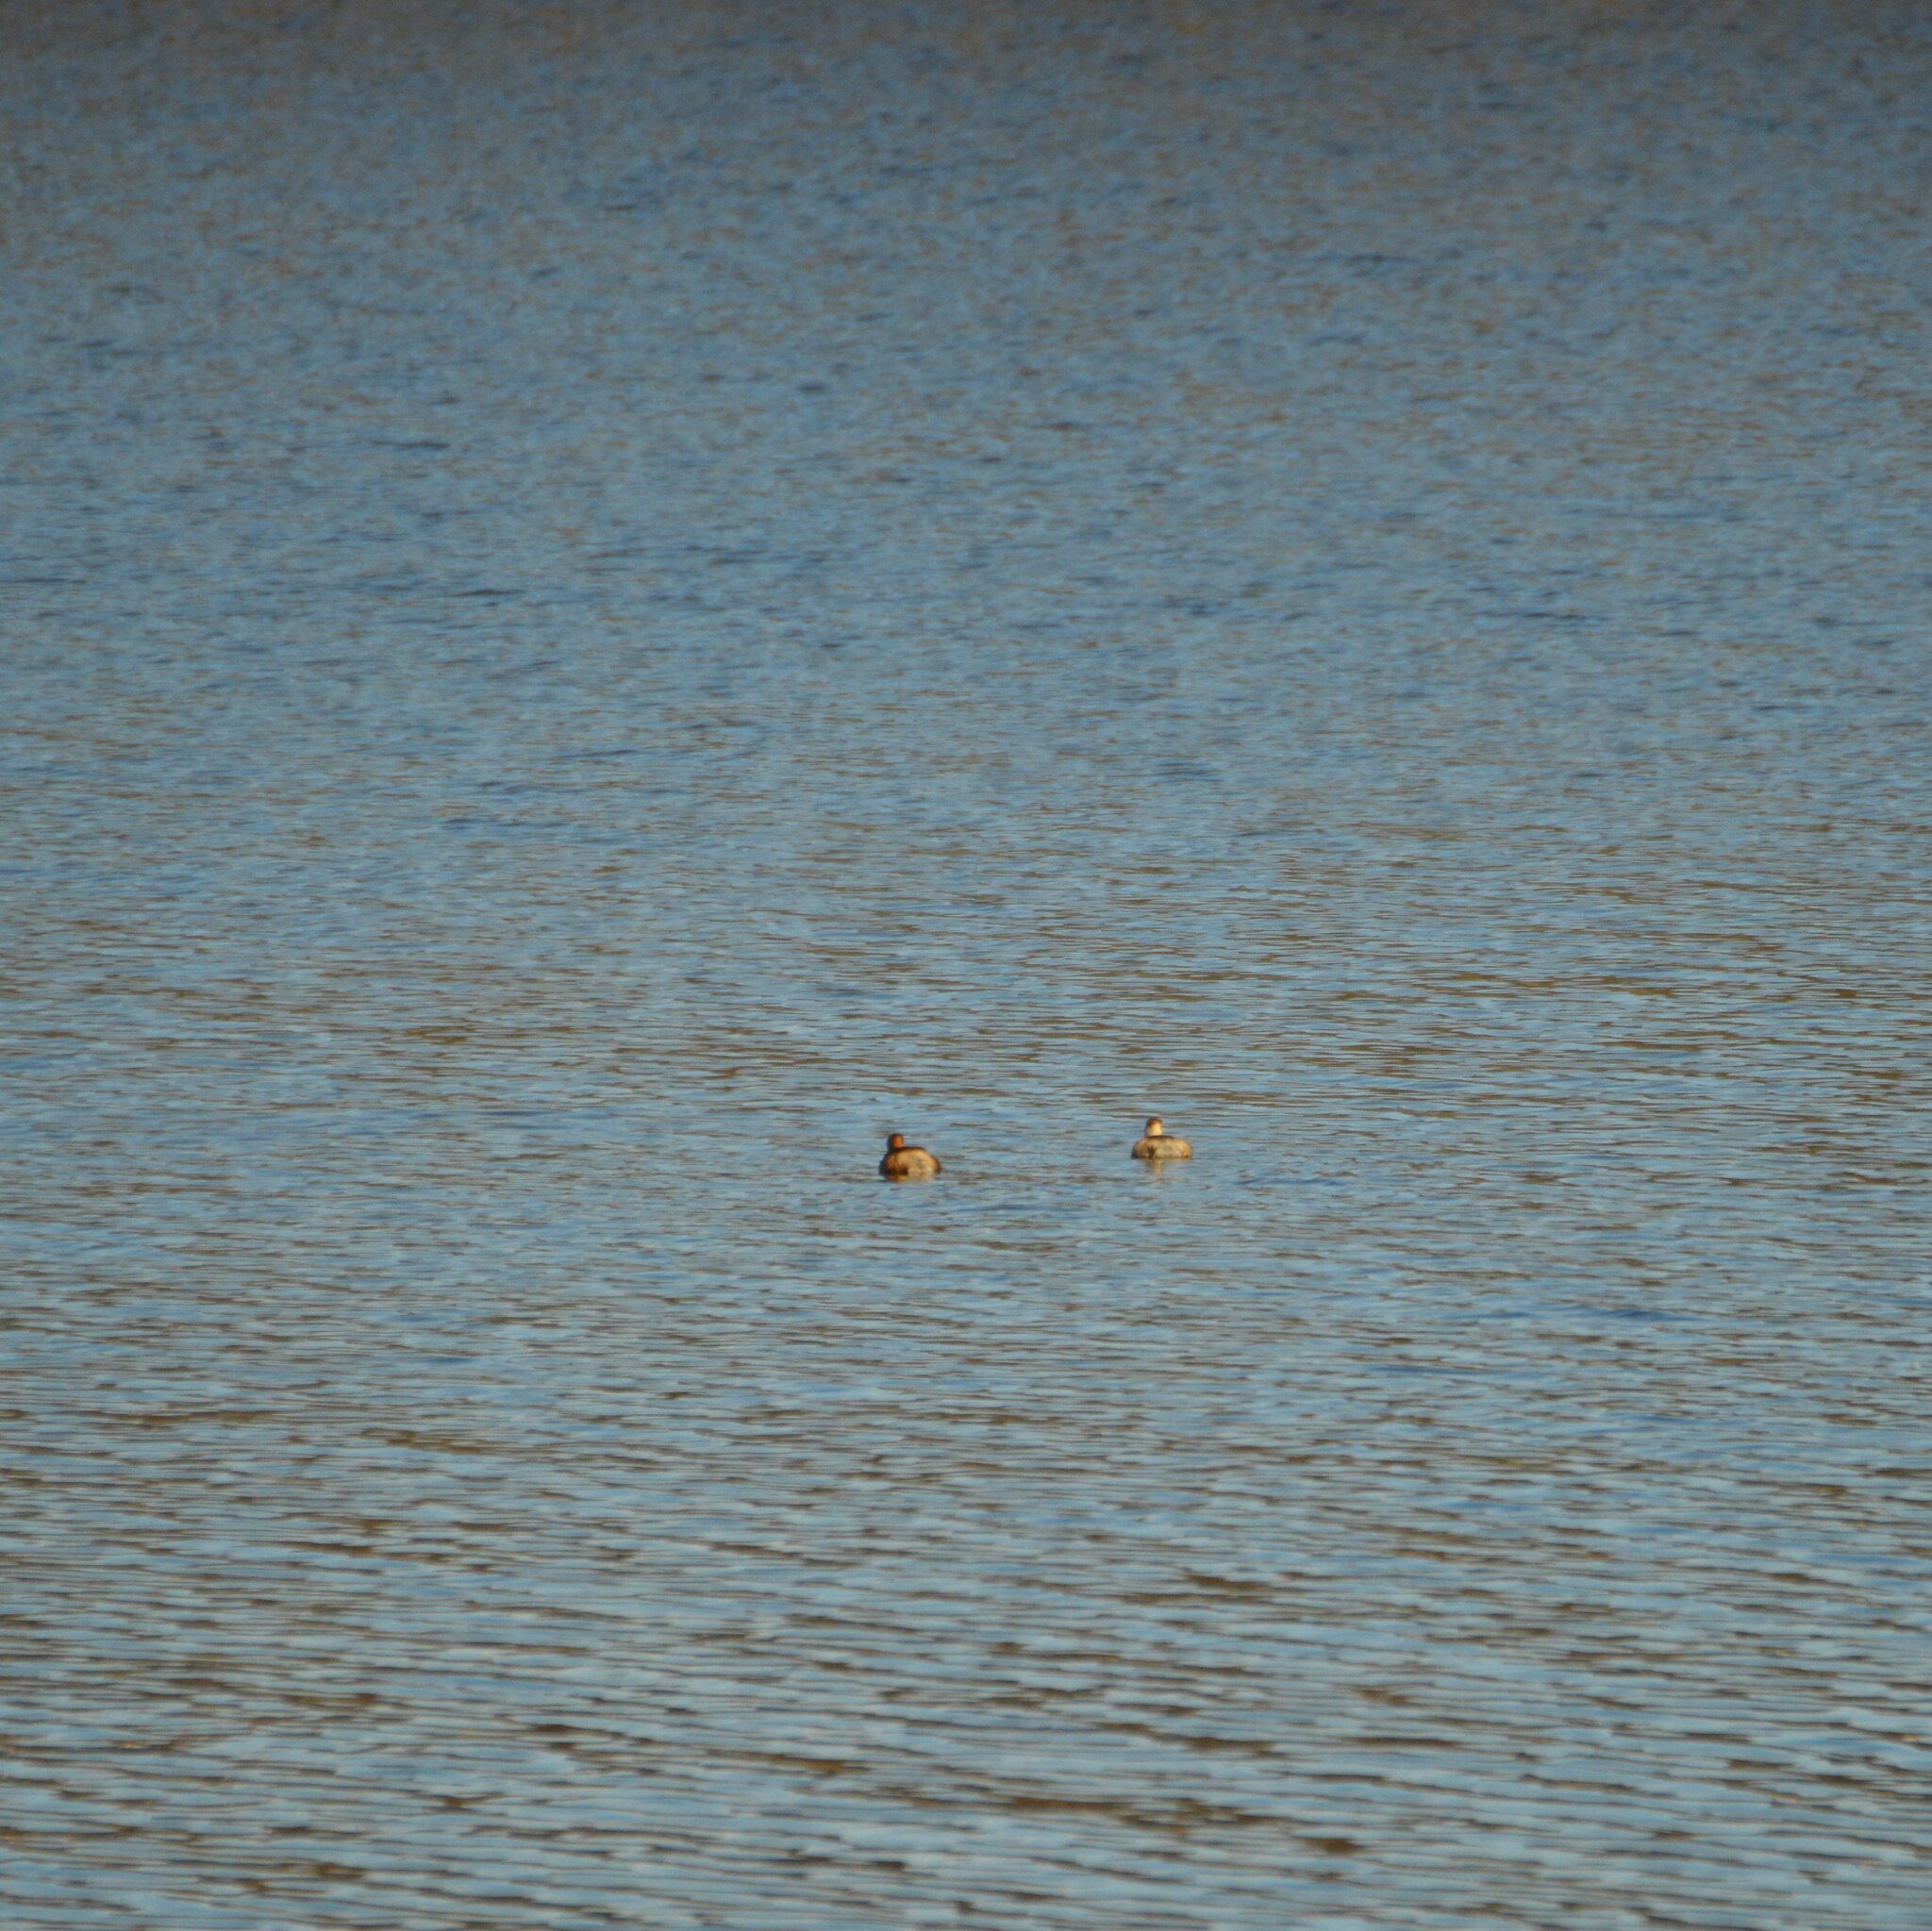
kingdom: Animalia
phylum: Chordata
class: Aves
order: Podicipediformes
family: Podicipedidae
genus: Tachybaptus
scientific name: Tachybaptus ruficollis
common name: Little grebe
